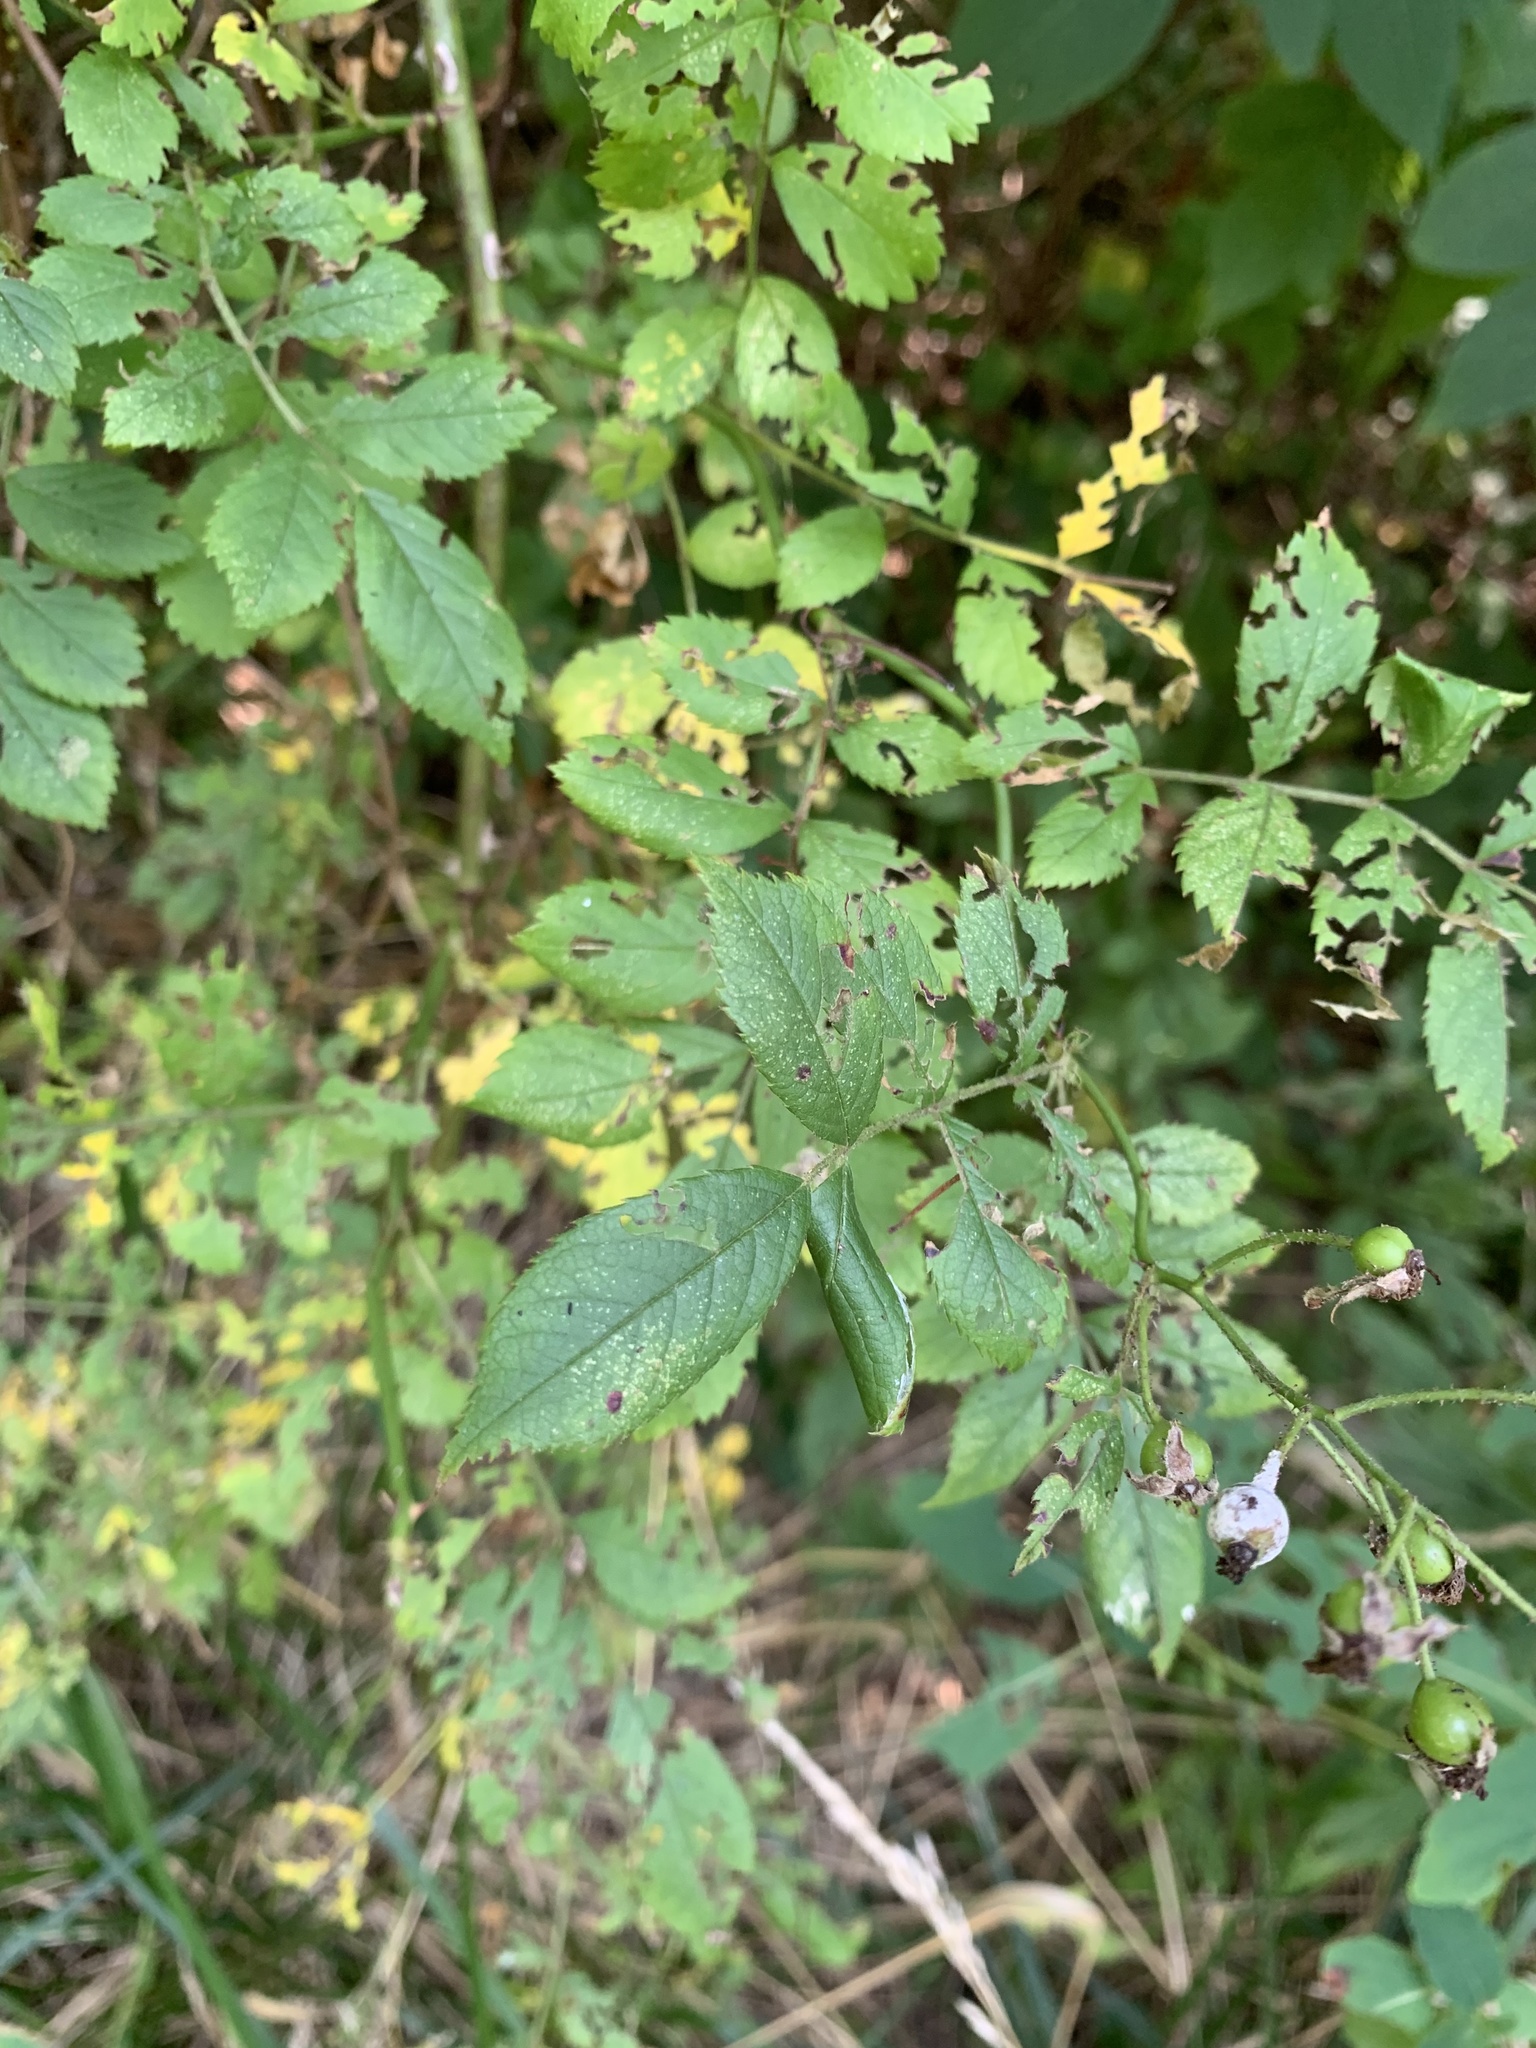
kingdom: Plantae
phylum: Tracheophyta
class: Magnoliopsida
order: Rosales
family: Rosaceae
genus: Rosa
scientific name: Rosa multiflora
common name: Multiflora rose
